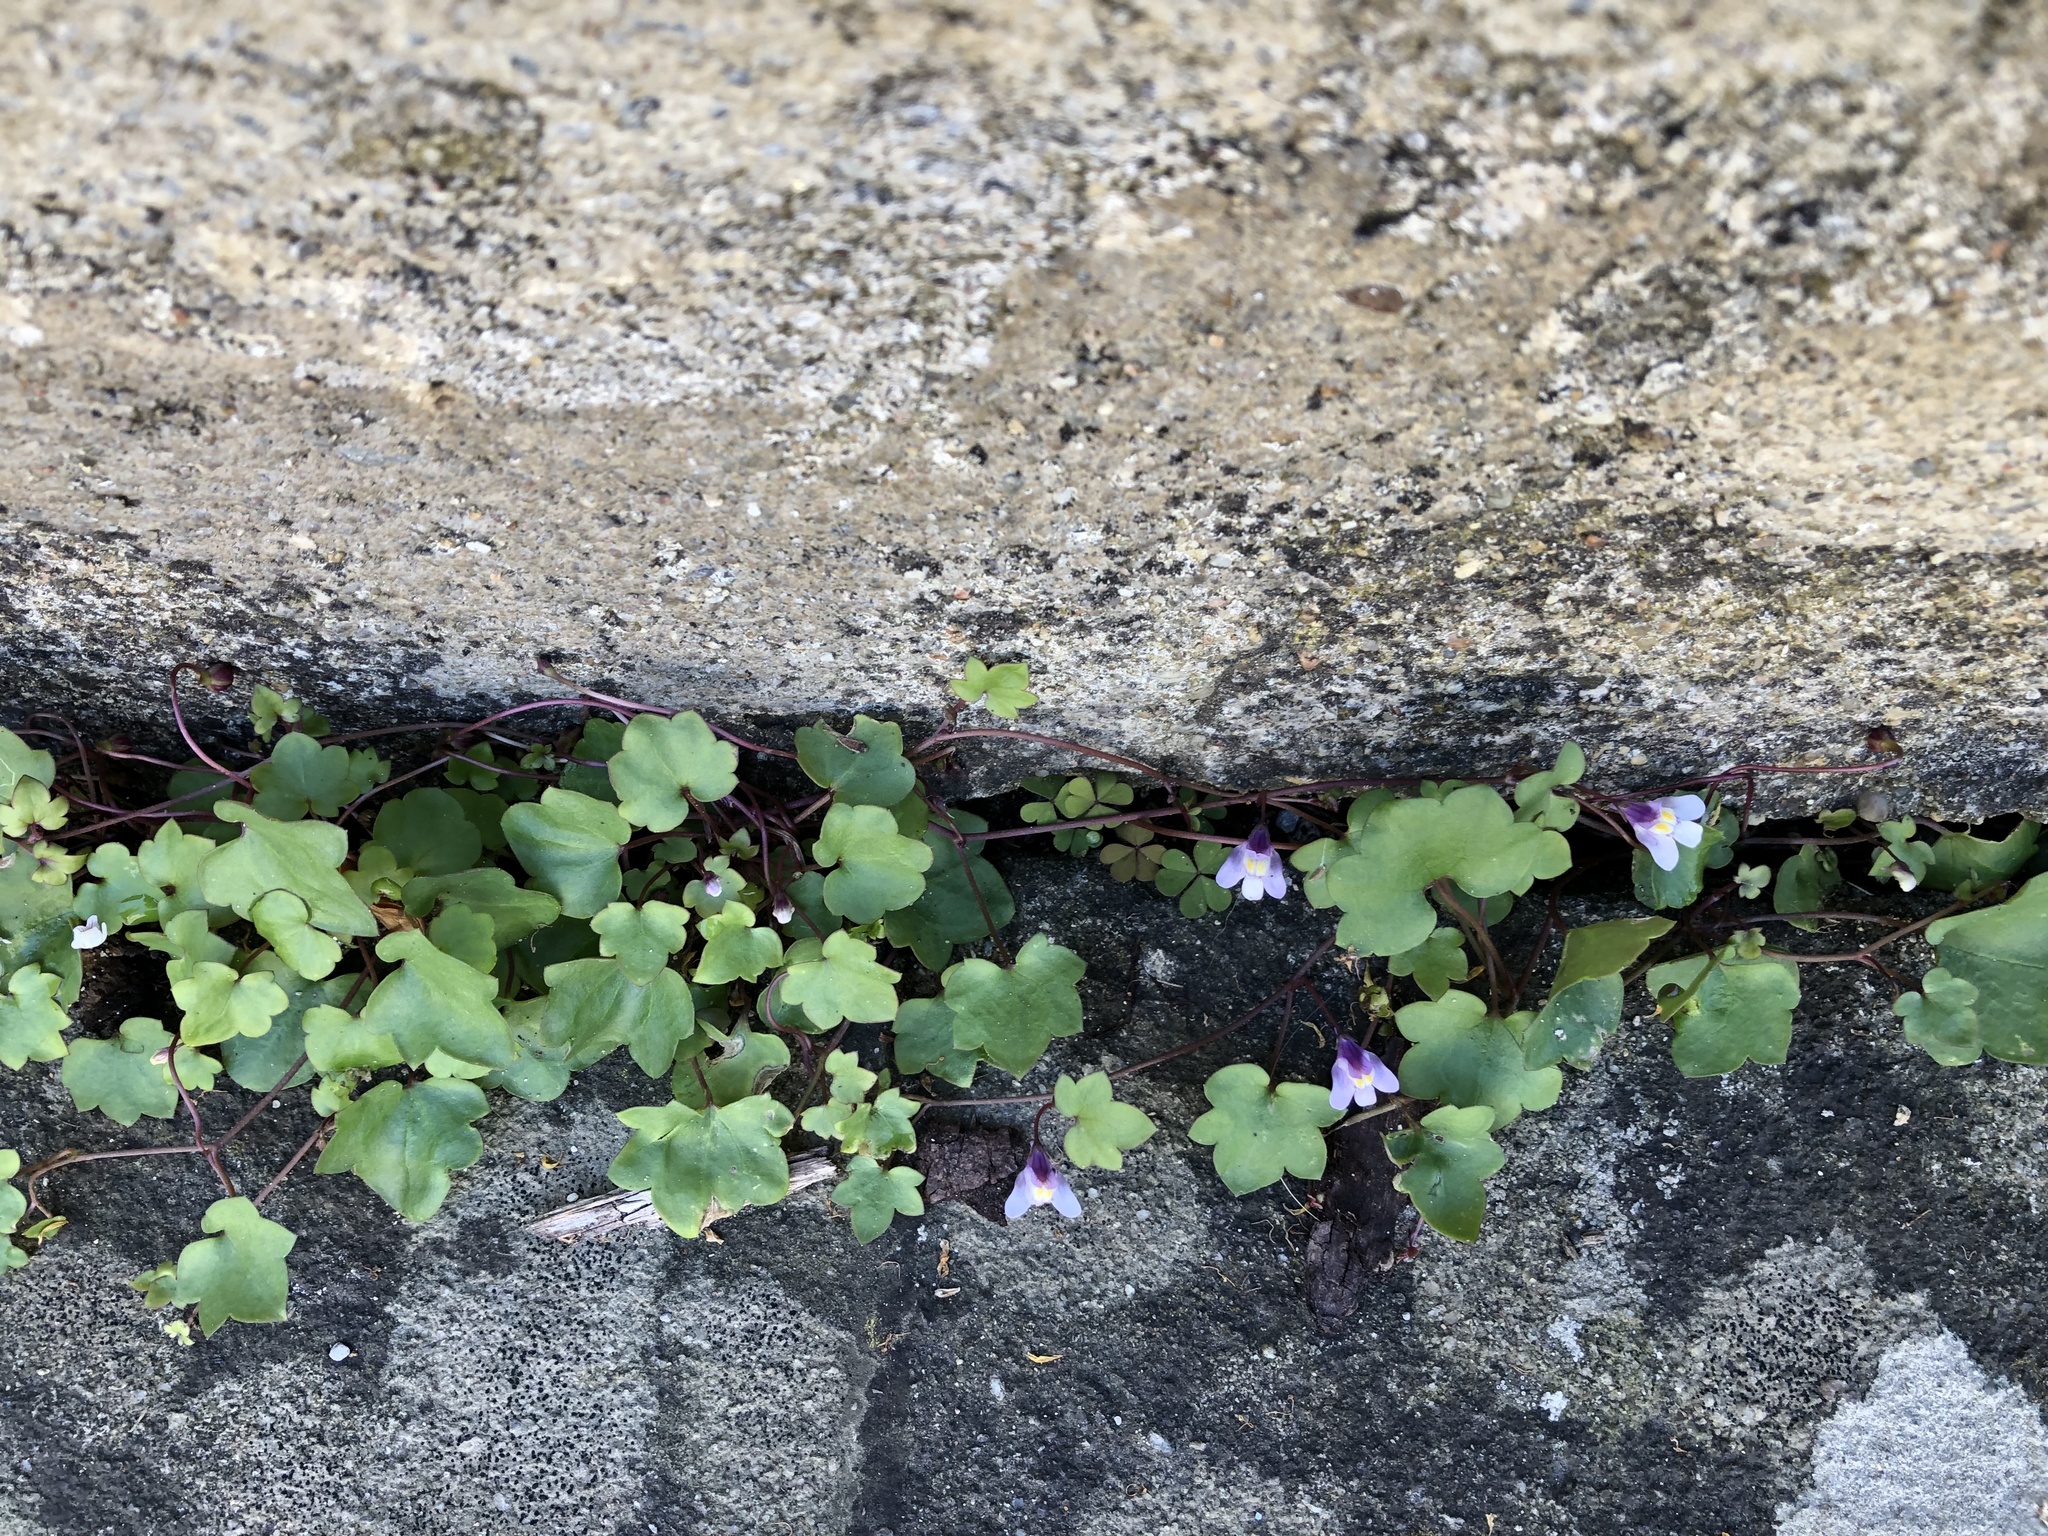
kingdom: Plantae
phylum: Tracheophyta
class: Magnoliopsida
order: Lamiales
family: Plantaginaceae
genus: Cymbalaria
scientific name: Cymbalaria muralis
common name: Ivy-leaved toadflax
